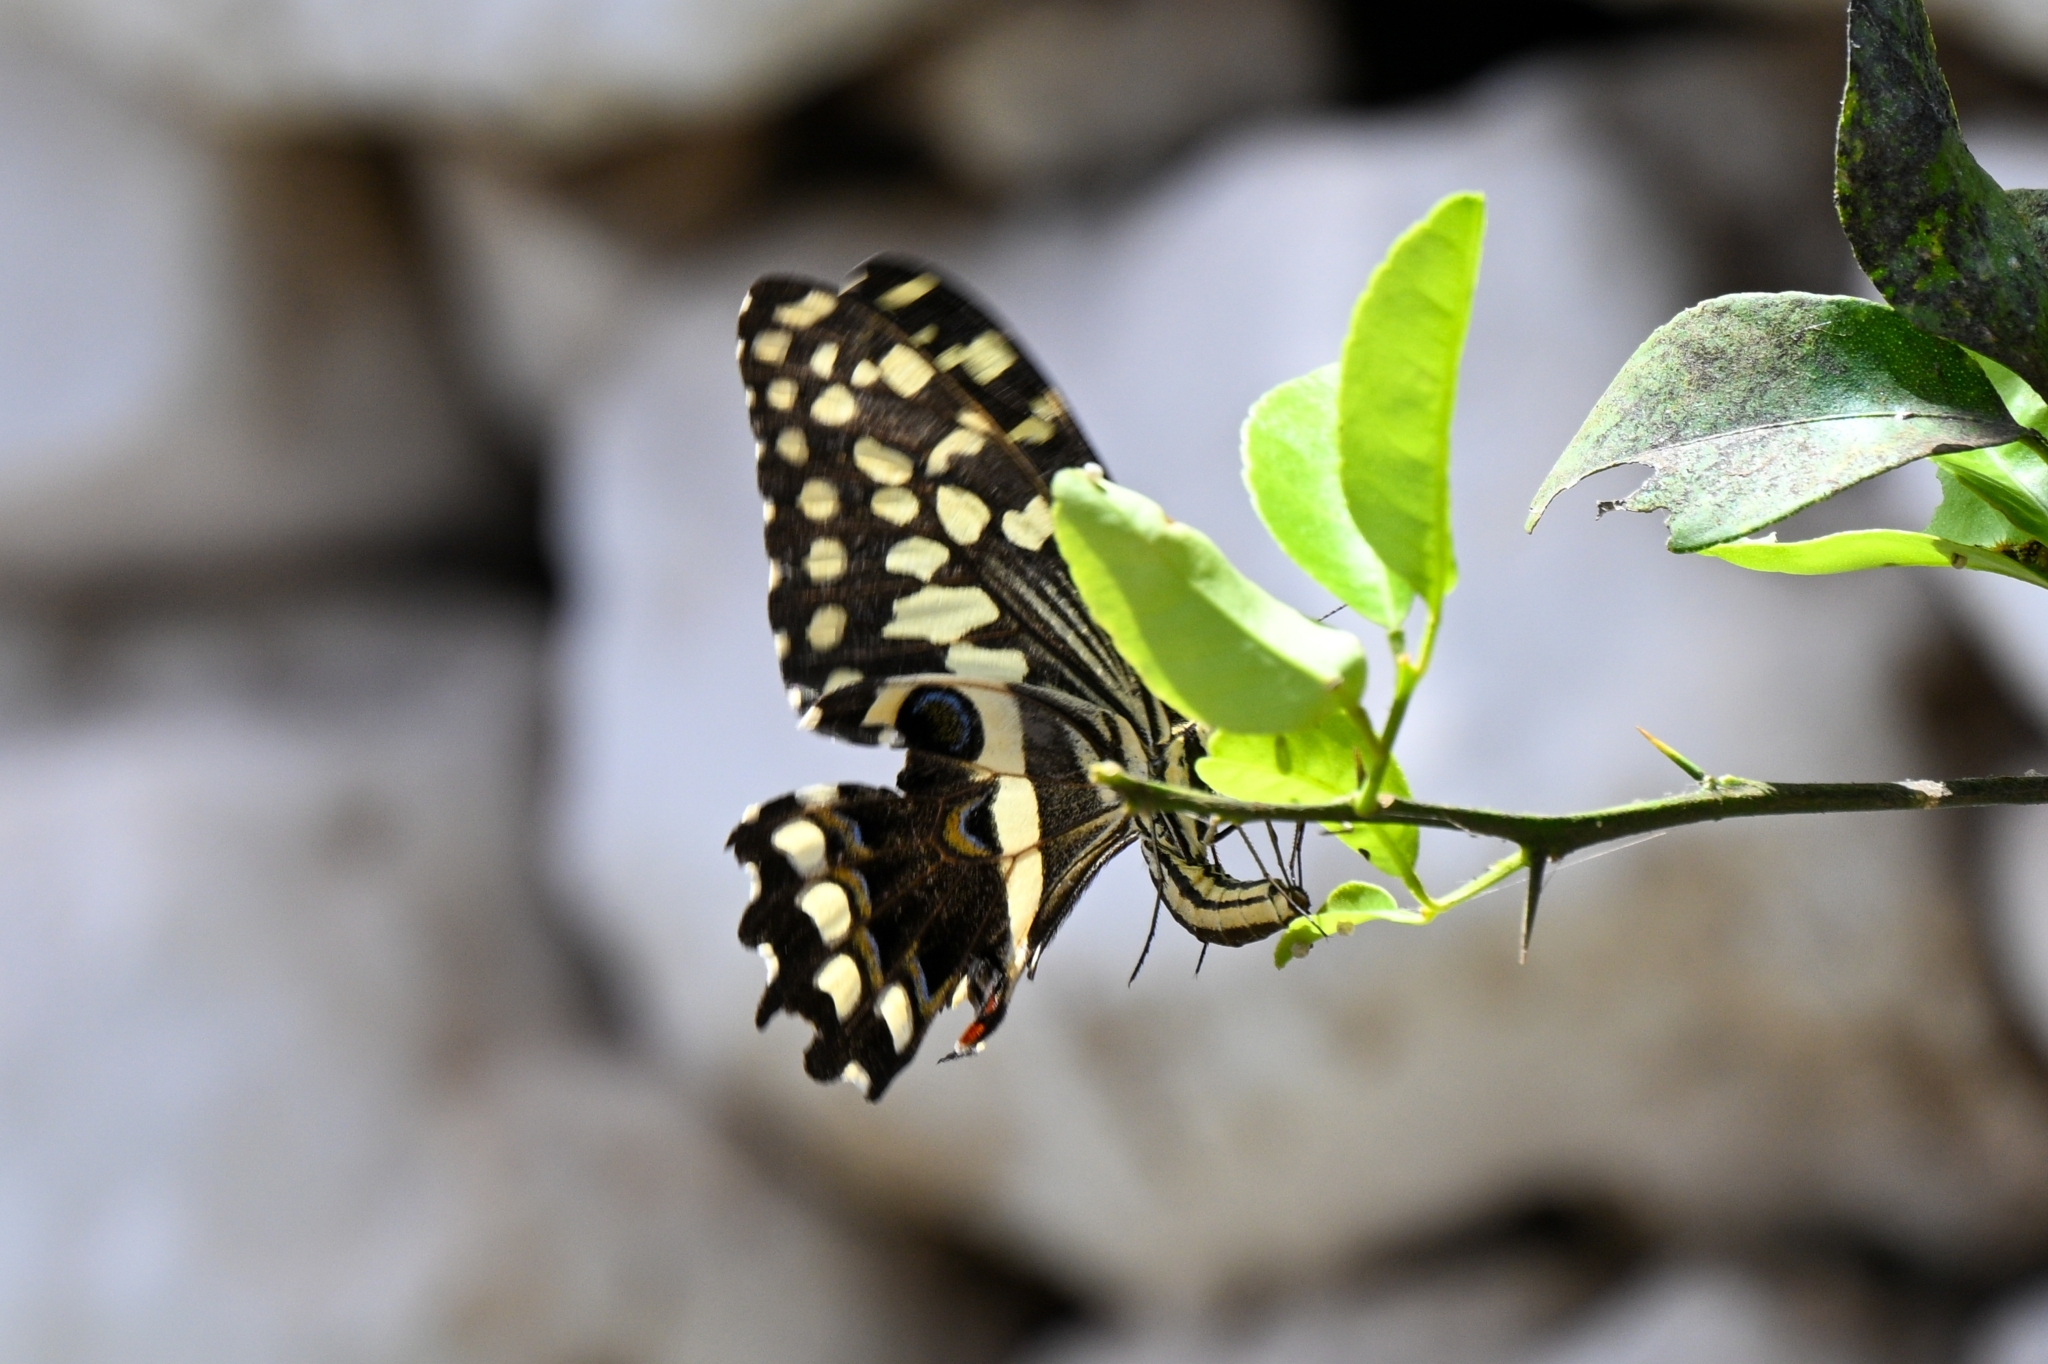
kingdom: Animalia
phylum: Arthropoda
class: Insecta
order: Lepidoptera
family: Papilionidae
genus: Papilio
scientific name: Papilio demodocus
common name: Christmas butterfly
